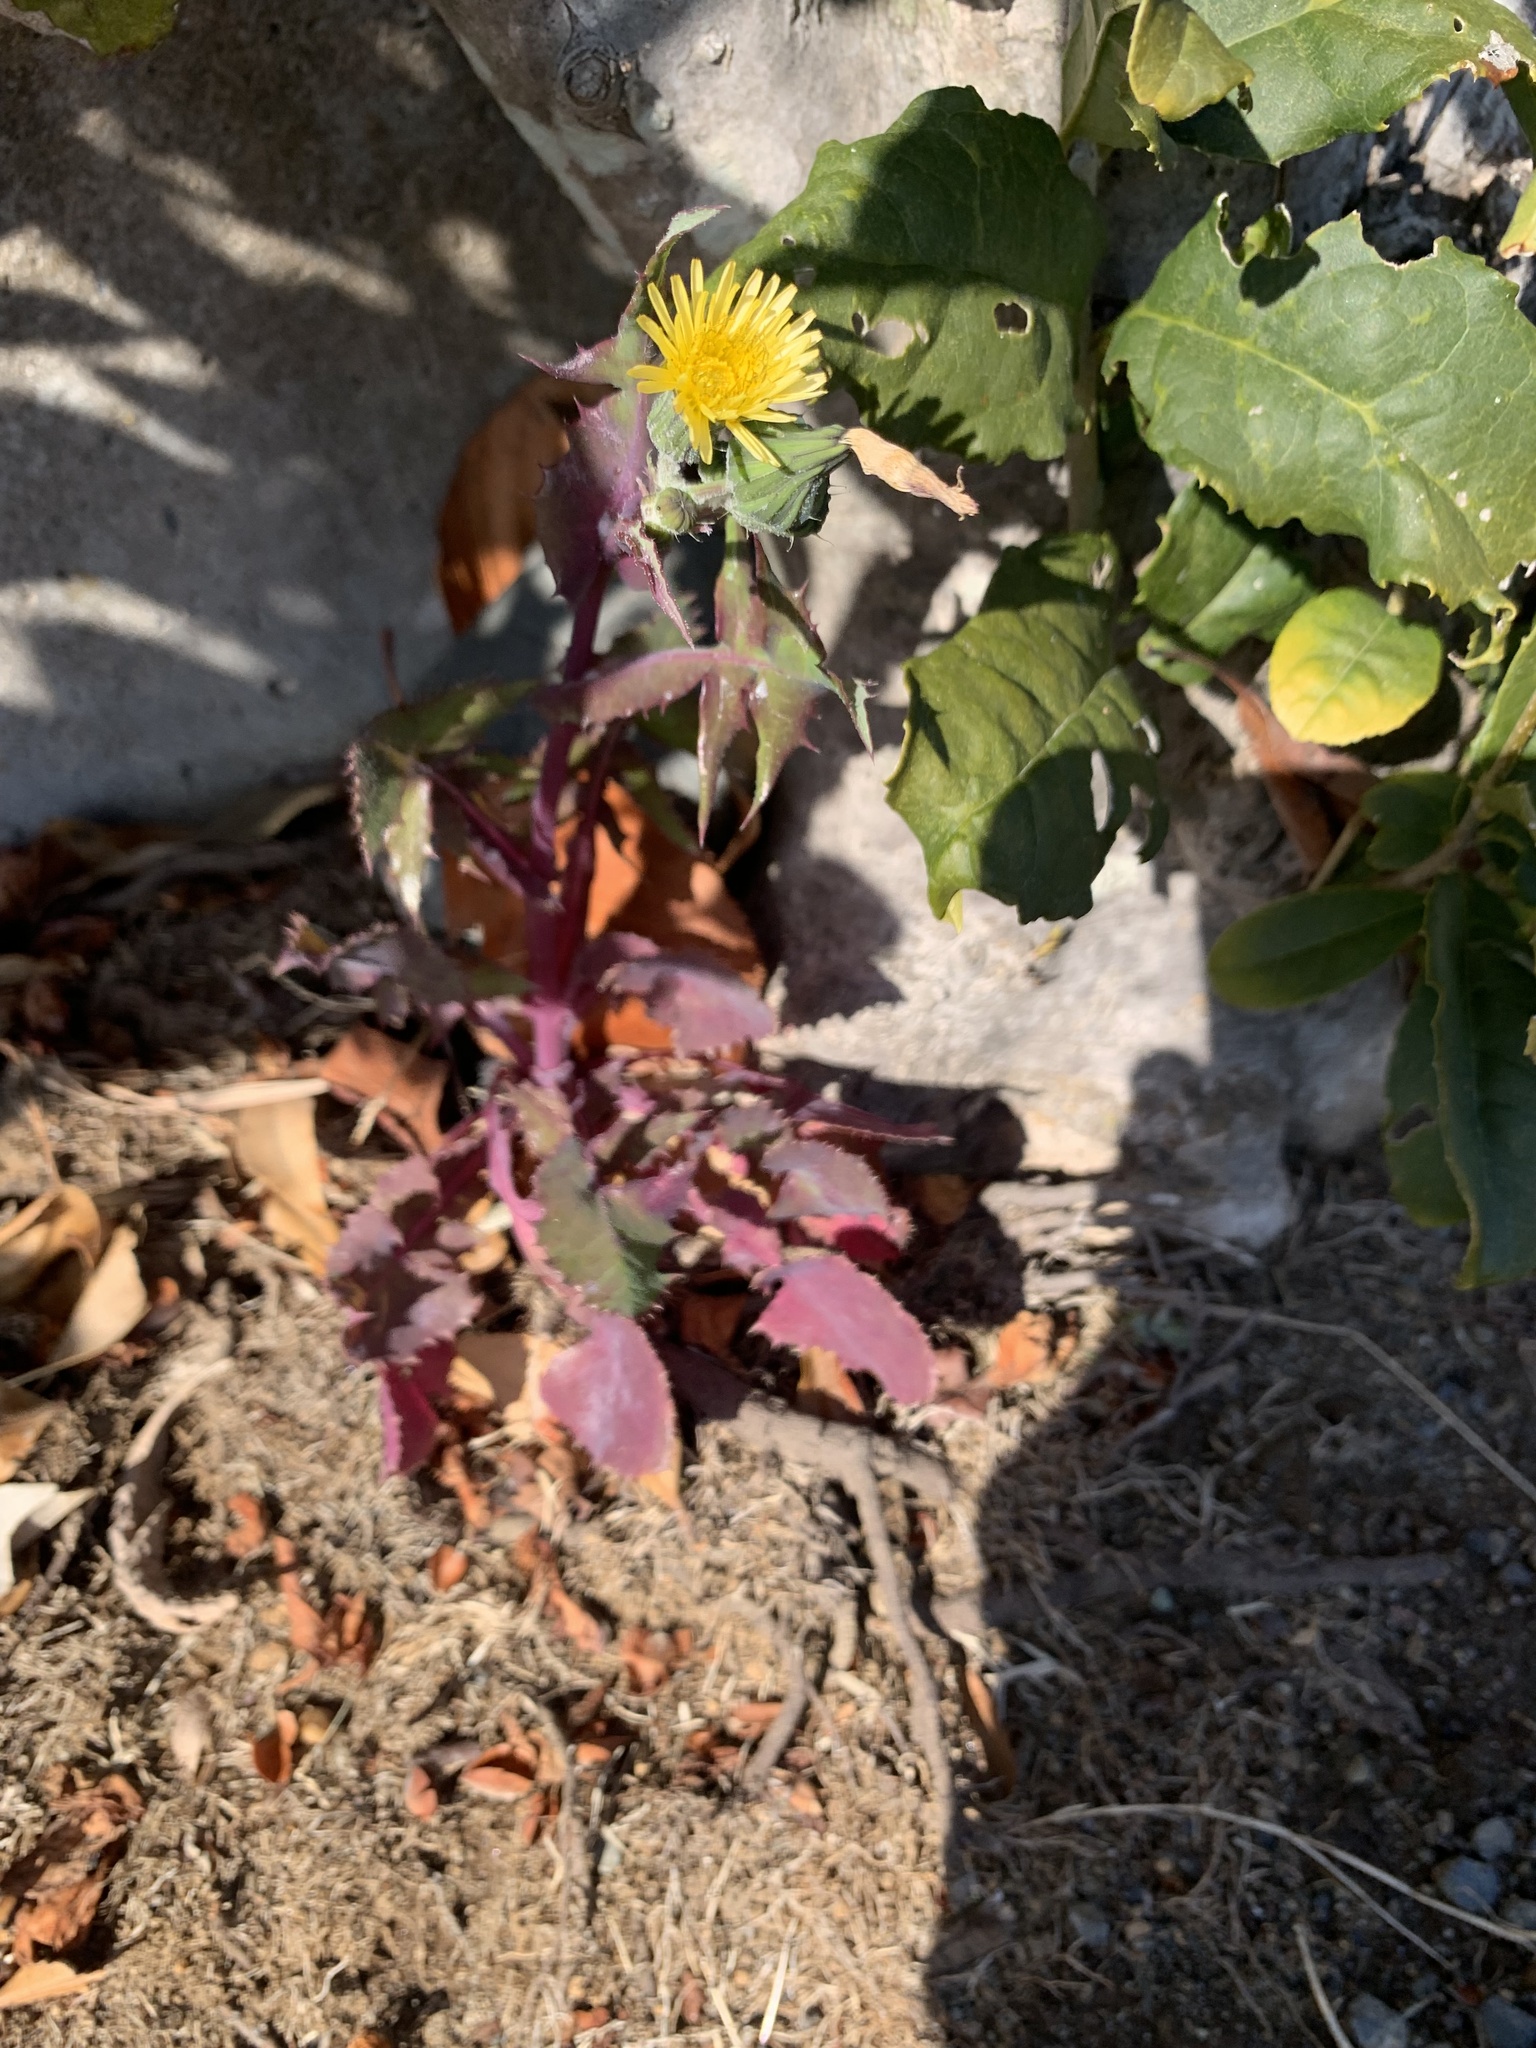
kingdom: Plantae
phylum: Tracheophyta
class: Magnoliopsida
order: Asterales
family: Asteraceae
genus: Sonchus
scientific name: Sonchus oleraceus
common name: Common sowthistle
